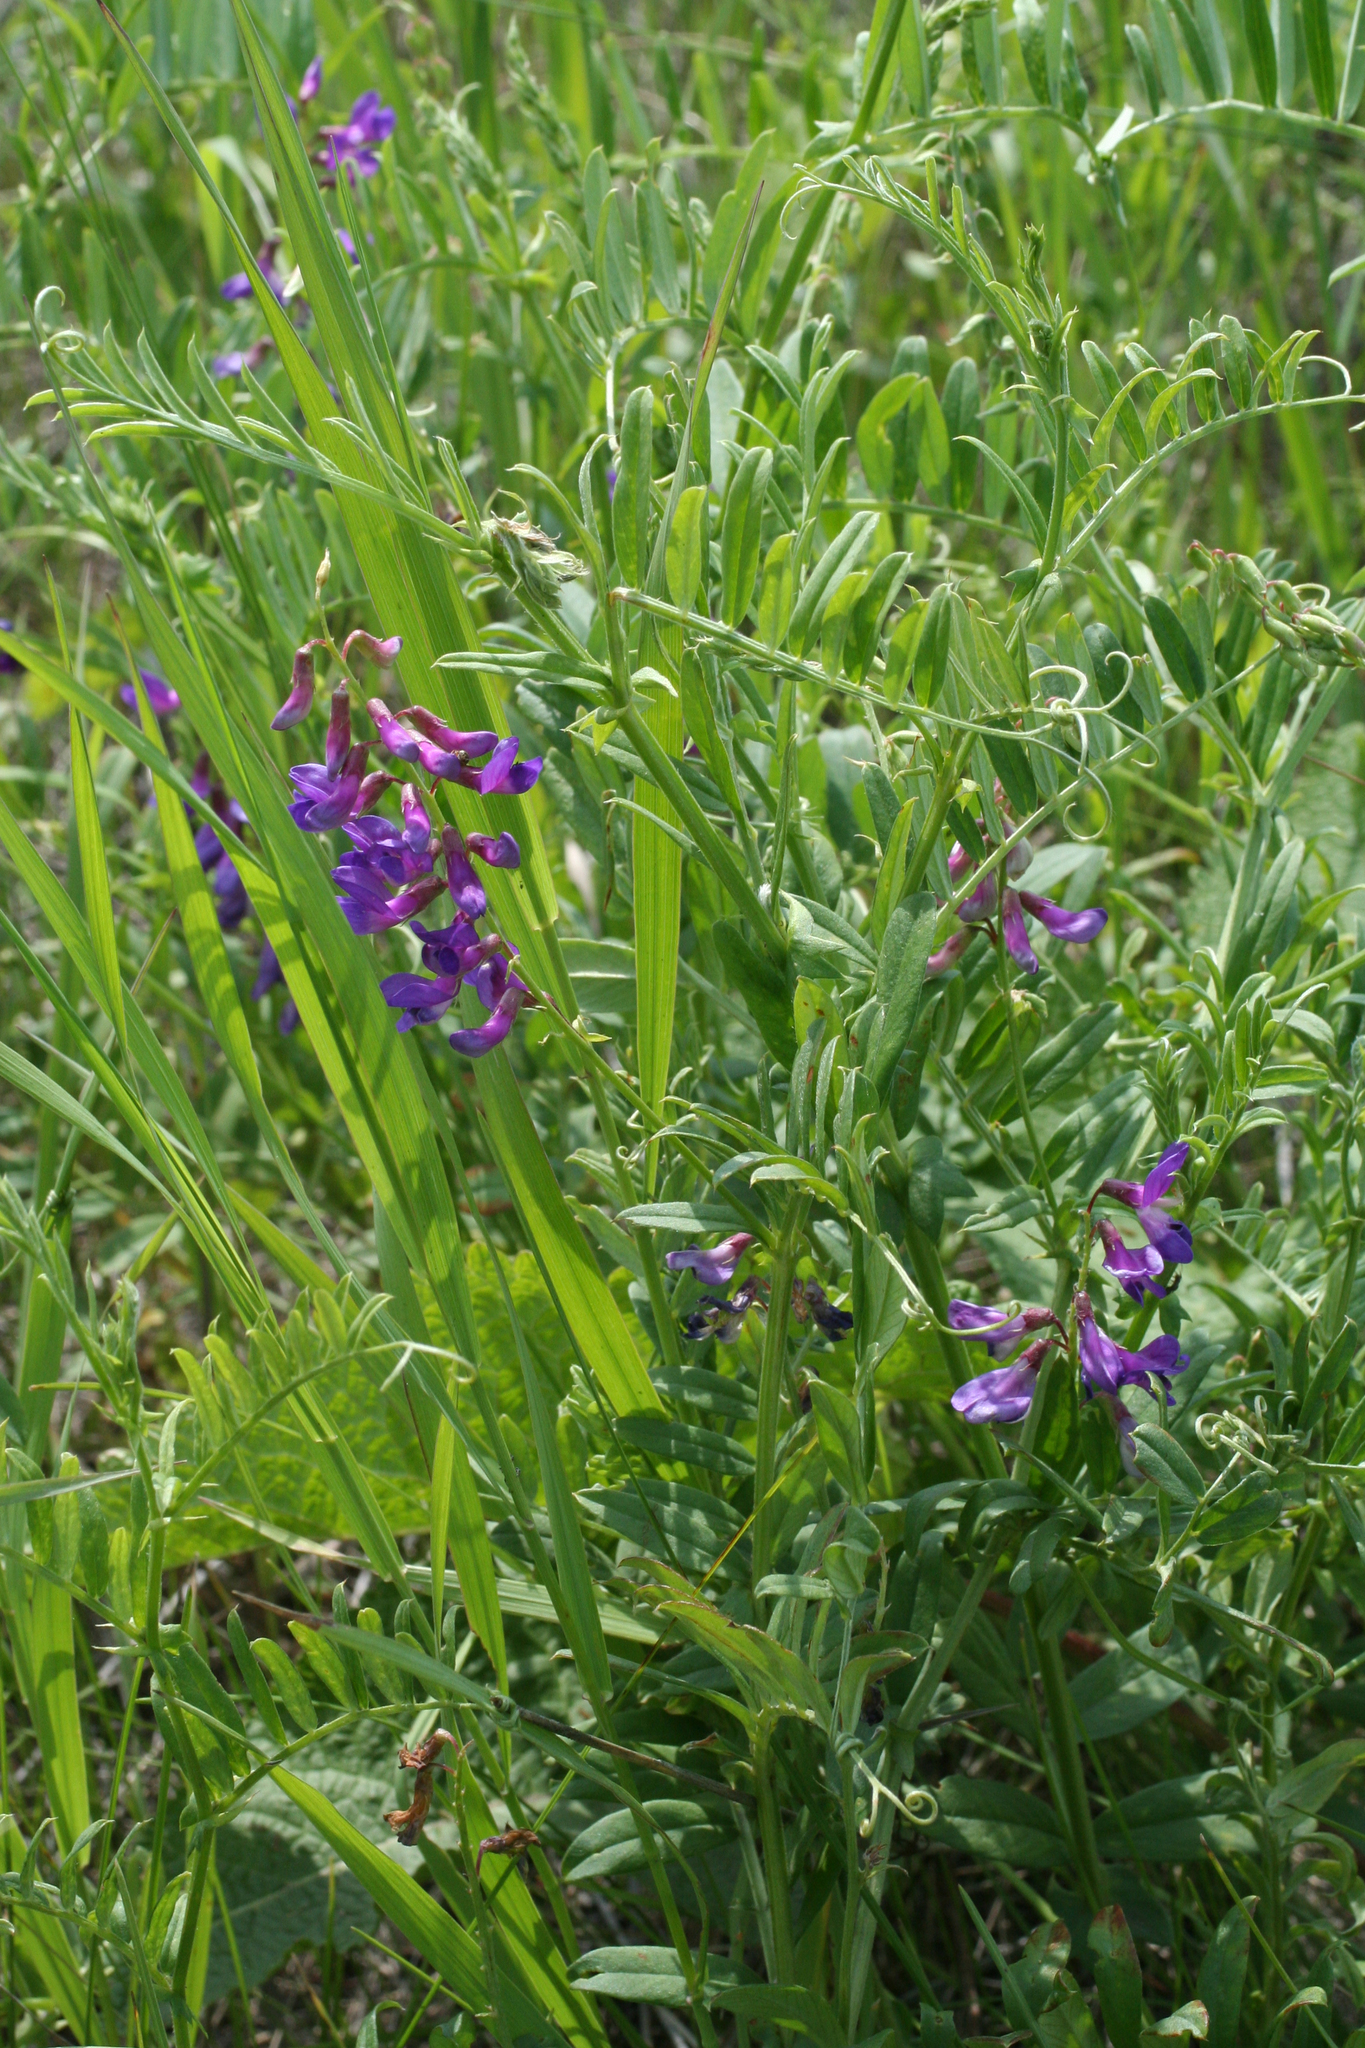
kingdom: Plantae
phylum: Tracheophyta
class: Magnoliopsida
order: Fabales
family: Fabaceae
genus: Vicia
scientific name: Vicia amoena
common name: Cheder ebs
